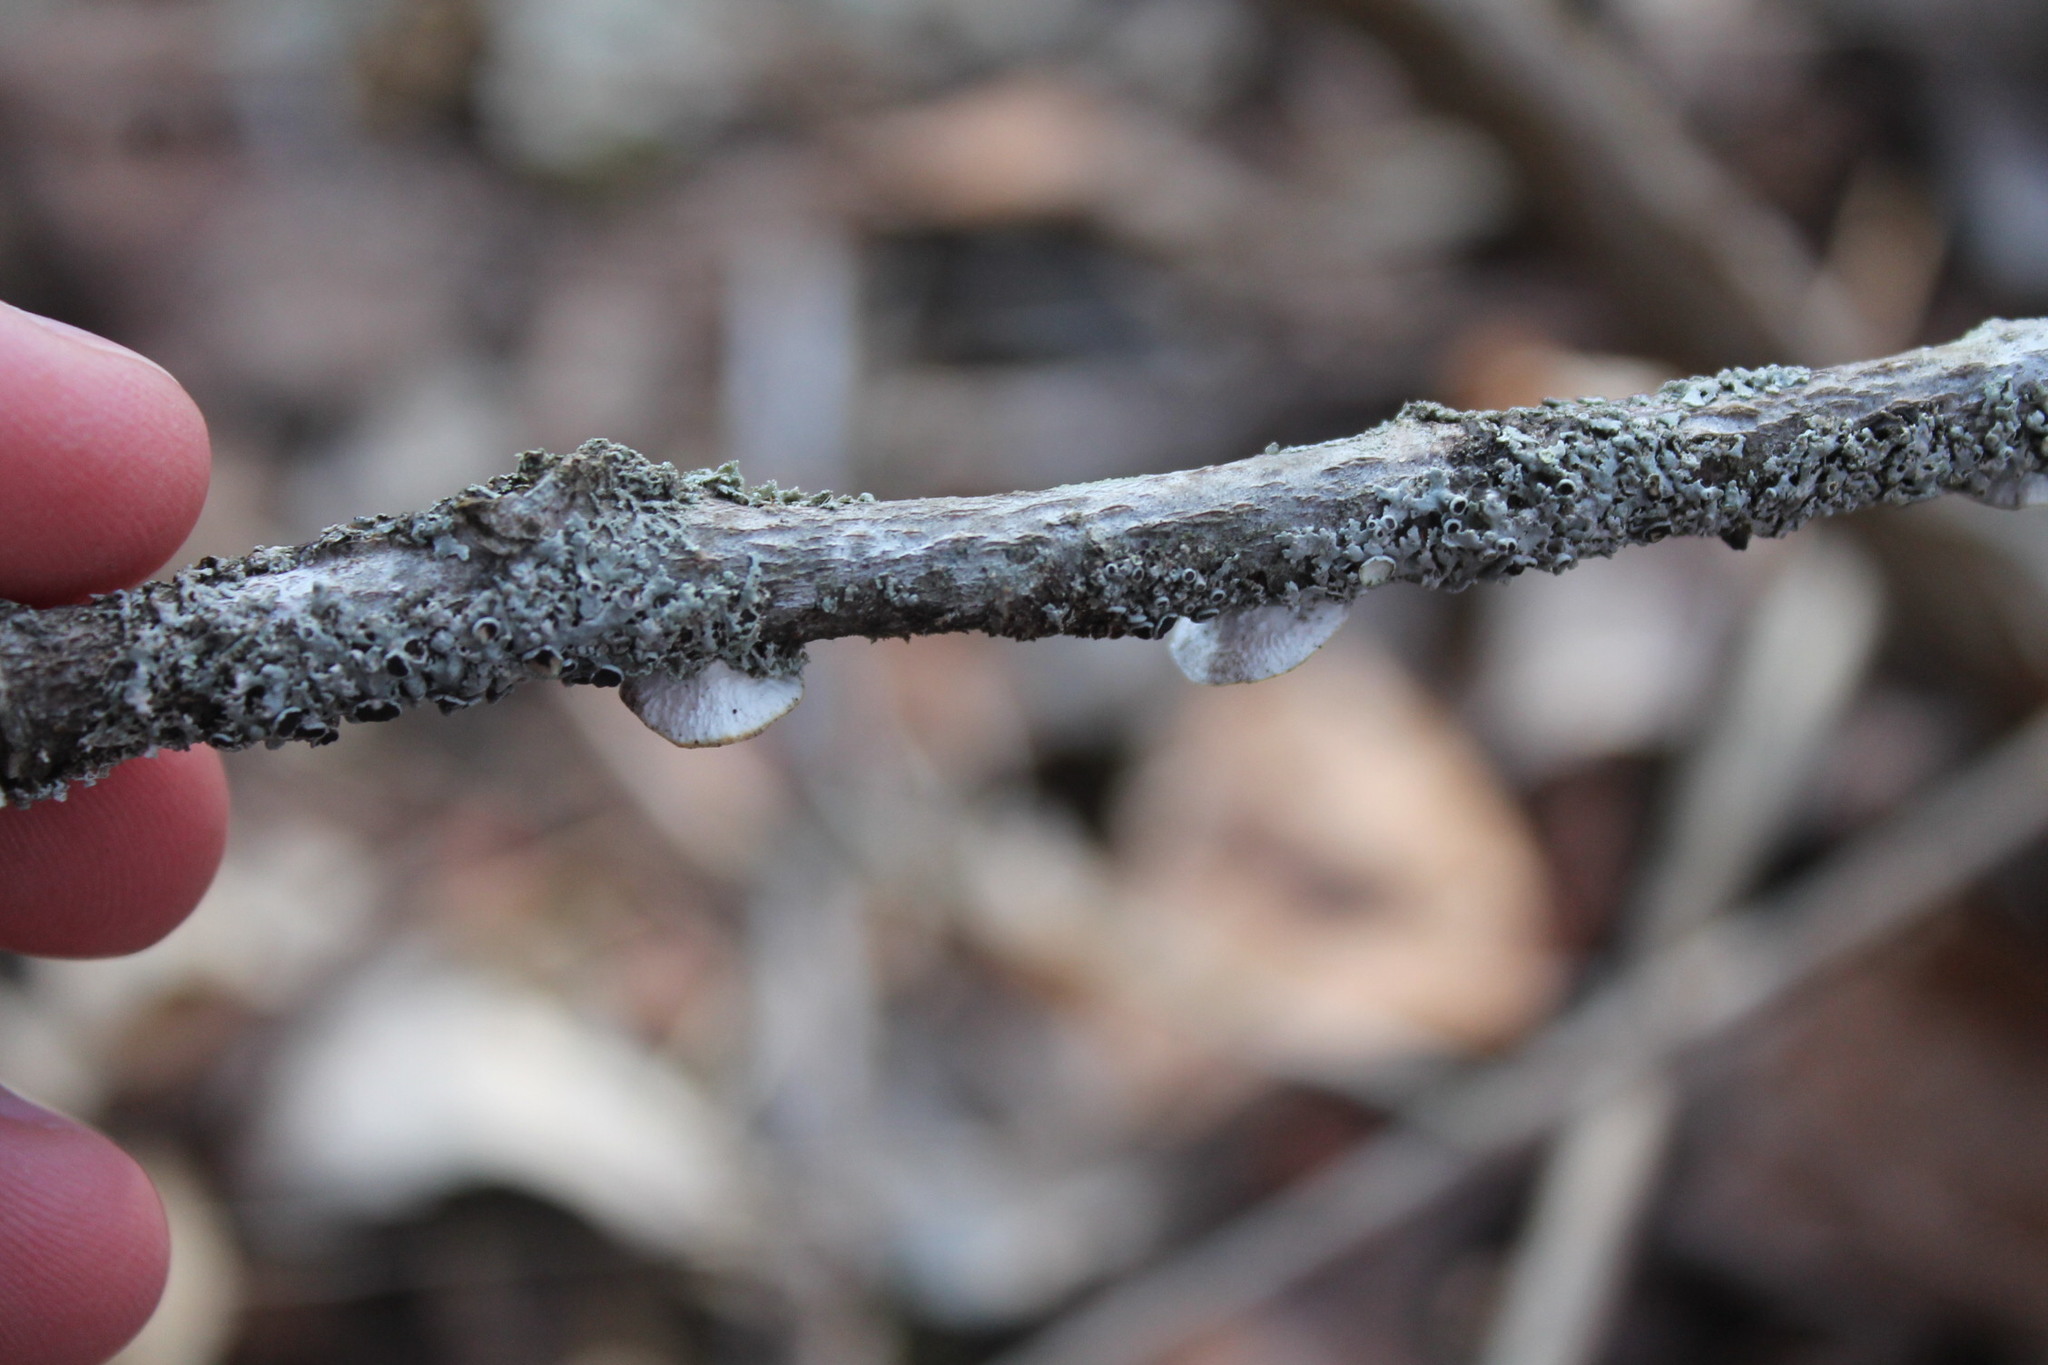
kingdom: Fungi
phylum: Basidiomycota
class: Agaricomycetes
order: Polyporales
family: Polyporaceae
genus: Poronidulus
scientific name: Poronidulus conchifer
